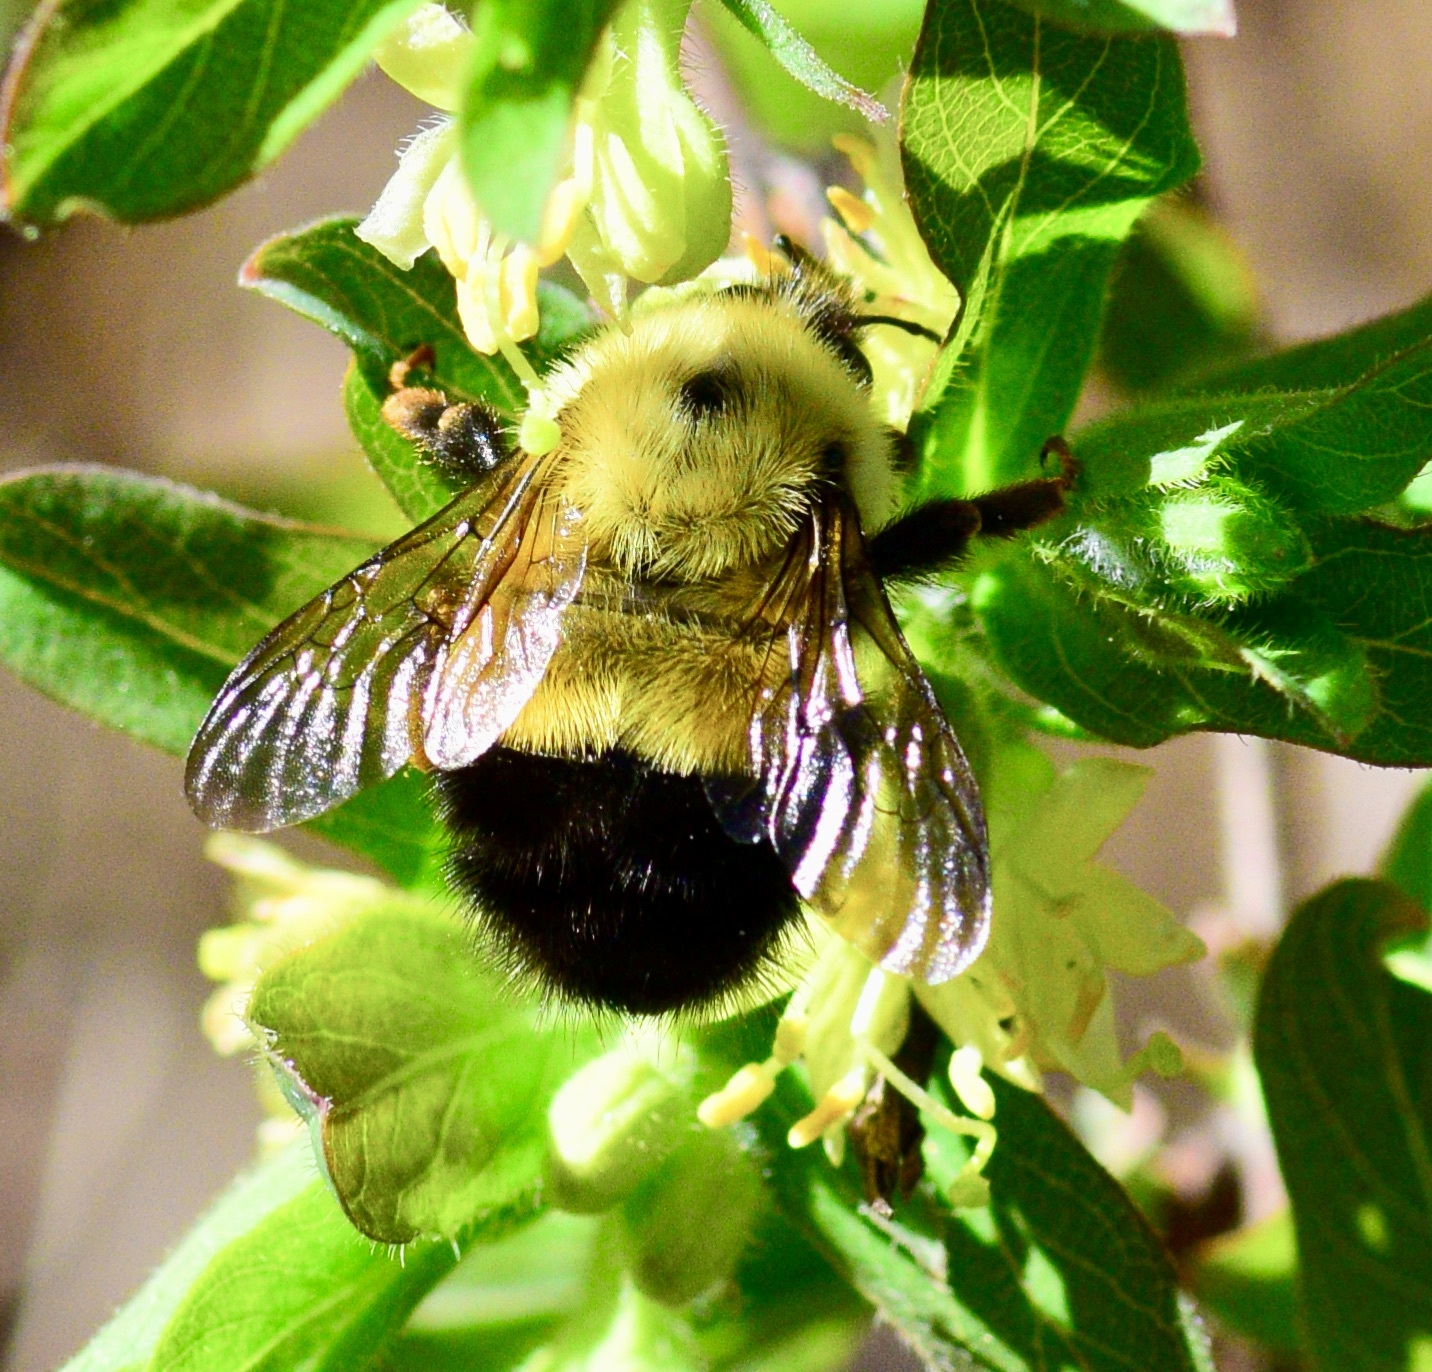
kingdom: Animalia
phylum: Arthropoda
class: Insecta
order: Hymenoptera
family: Apidae
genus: Bombus
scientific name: Bombus vagans
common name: Half-black bumble bee
